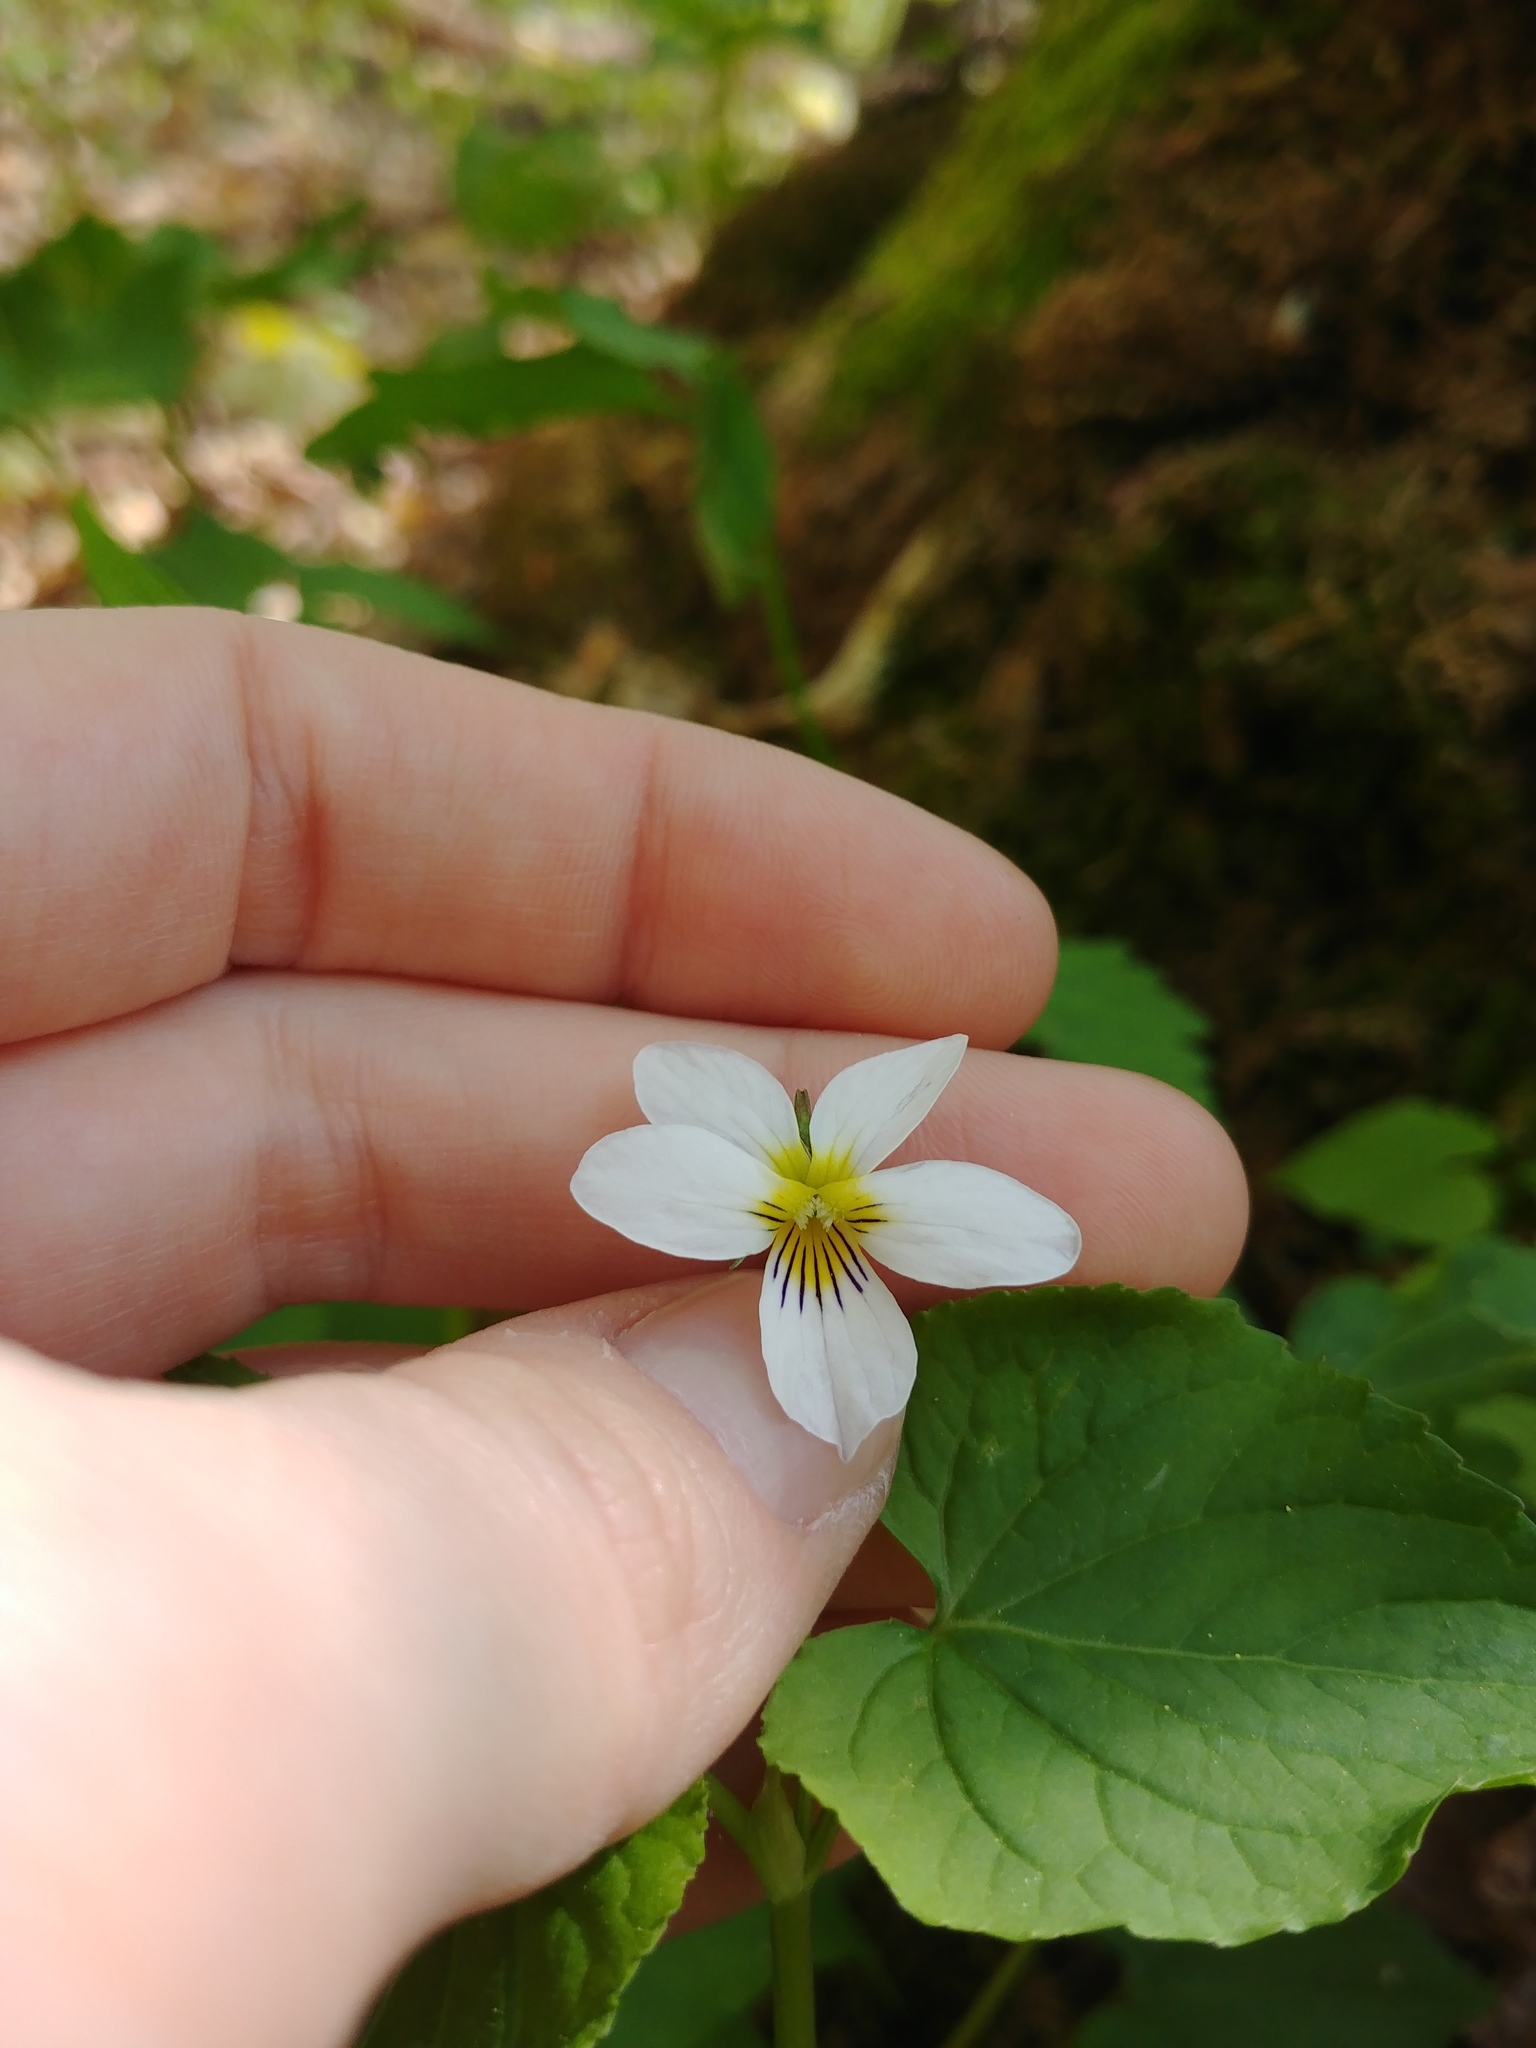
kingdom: Plantae
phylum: Tracheophyta
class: Magnoliopsida
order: Malpighiales
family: Violaceae
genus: Viola
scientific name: Viola canadensis
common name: Canada violet
